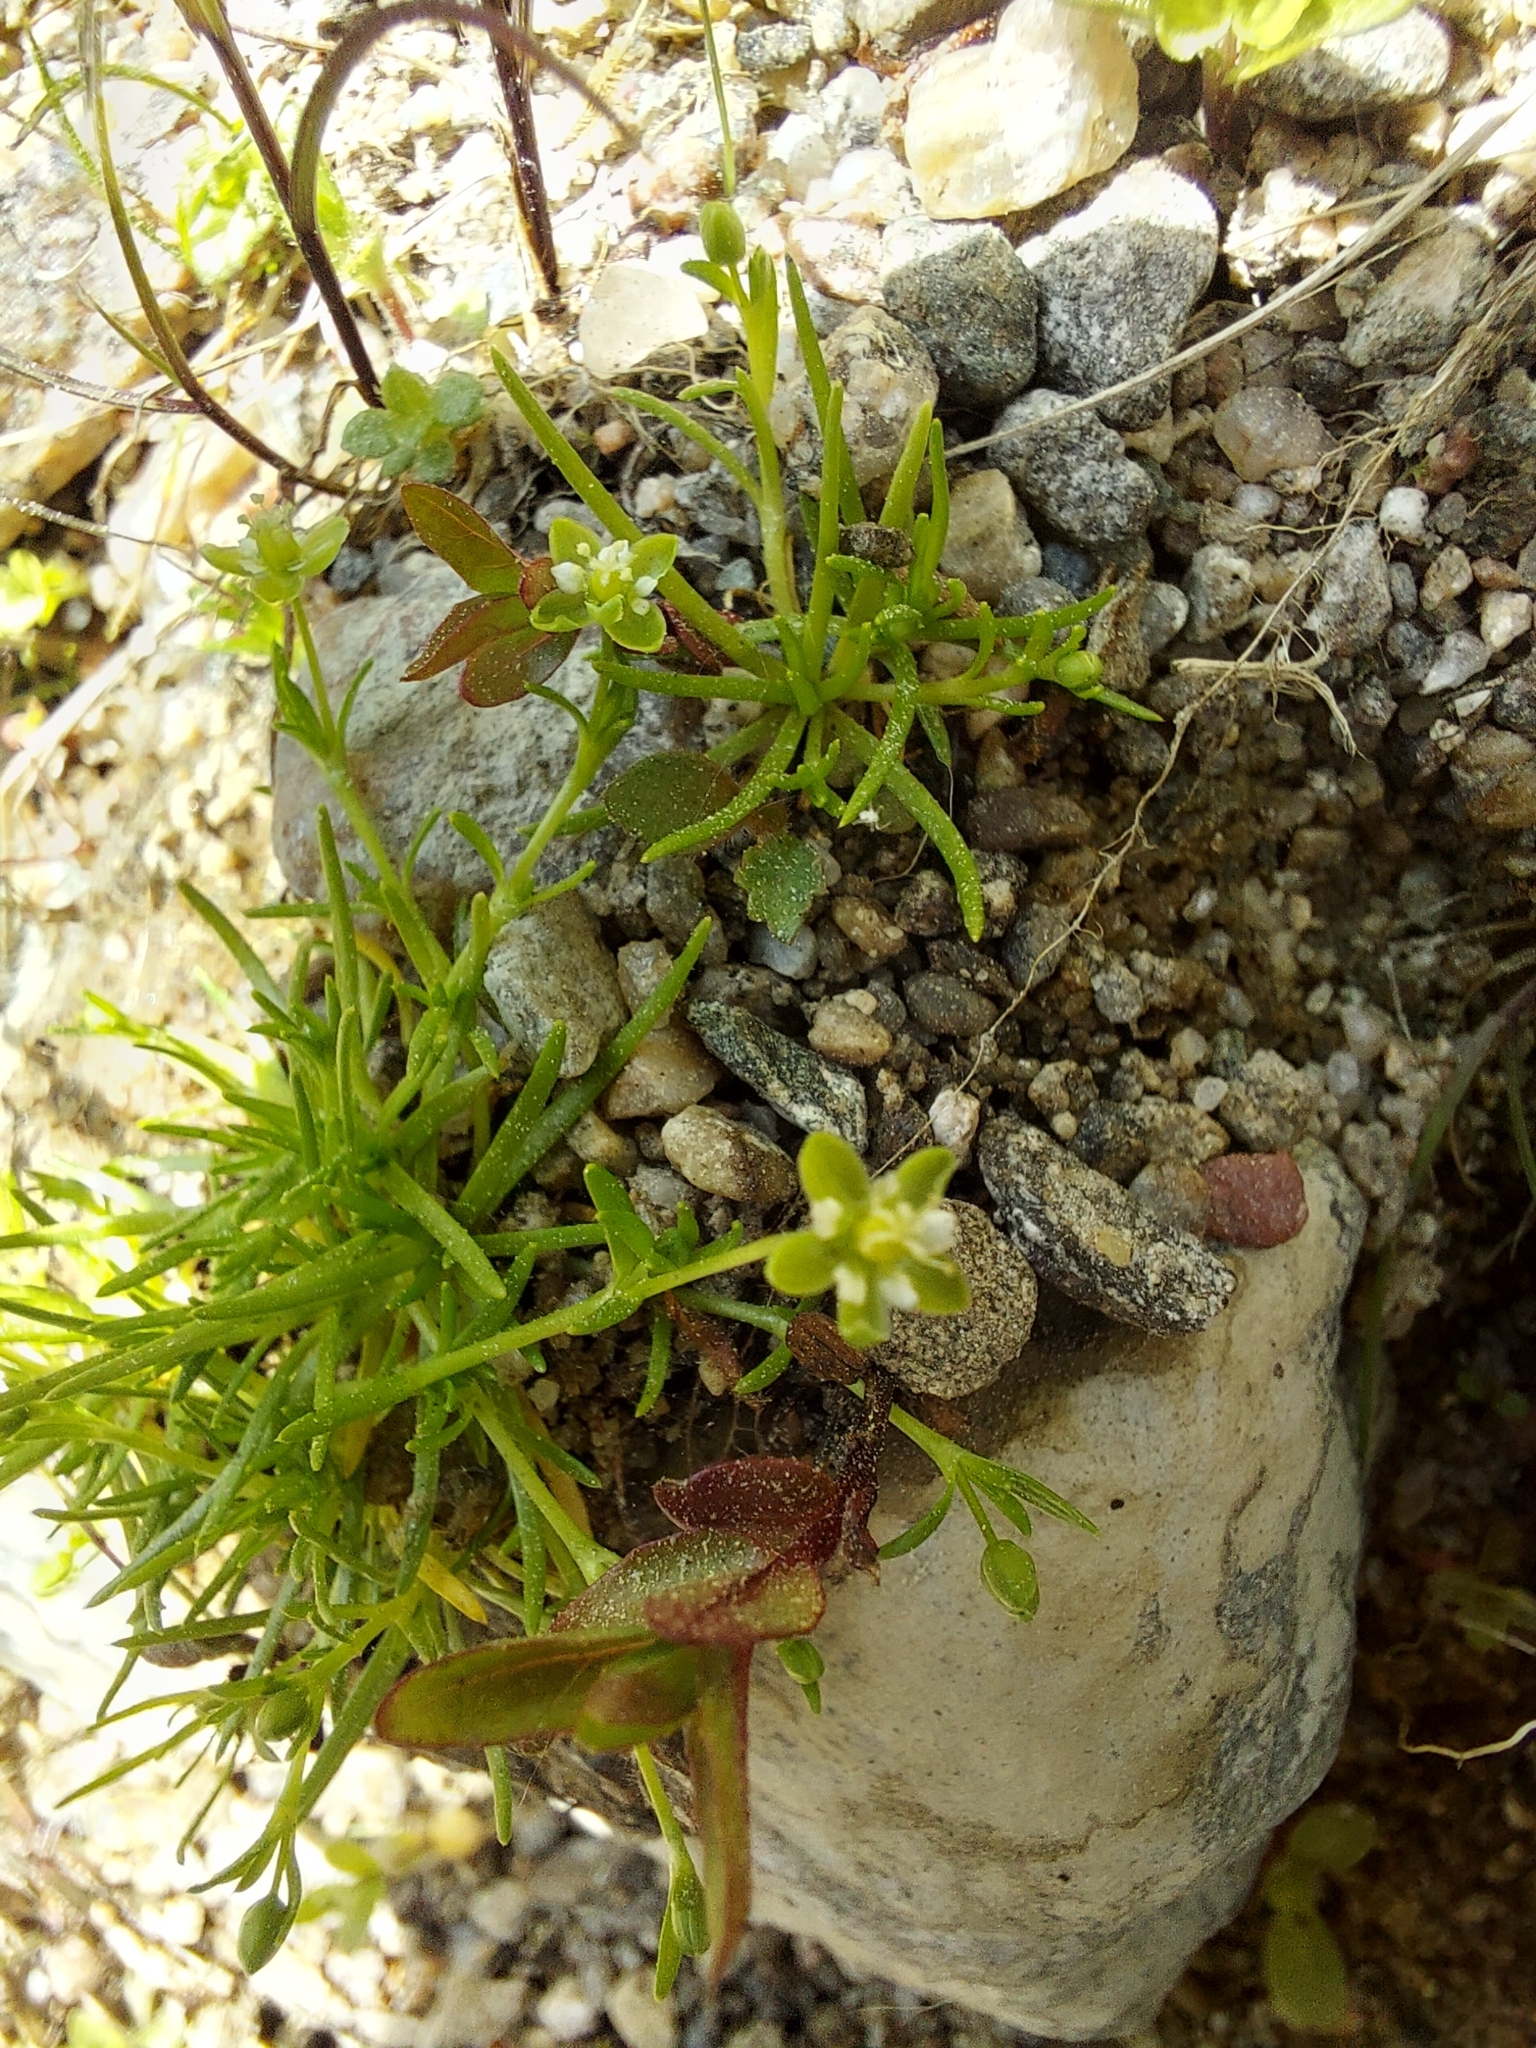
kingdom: Plantae
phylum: Tracheophyta
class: Magnoliopsida
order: Caryophyllales
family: Caryophyllaceae
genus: Sagina
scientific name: Sagina procumbens
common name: Procumbent pearlwort
